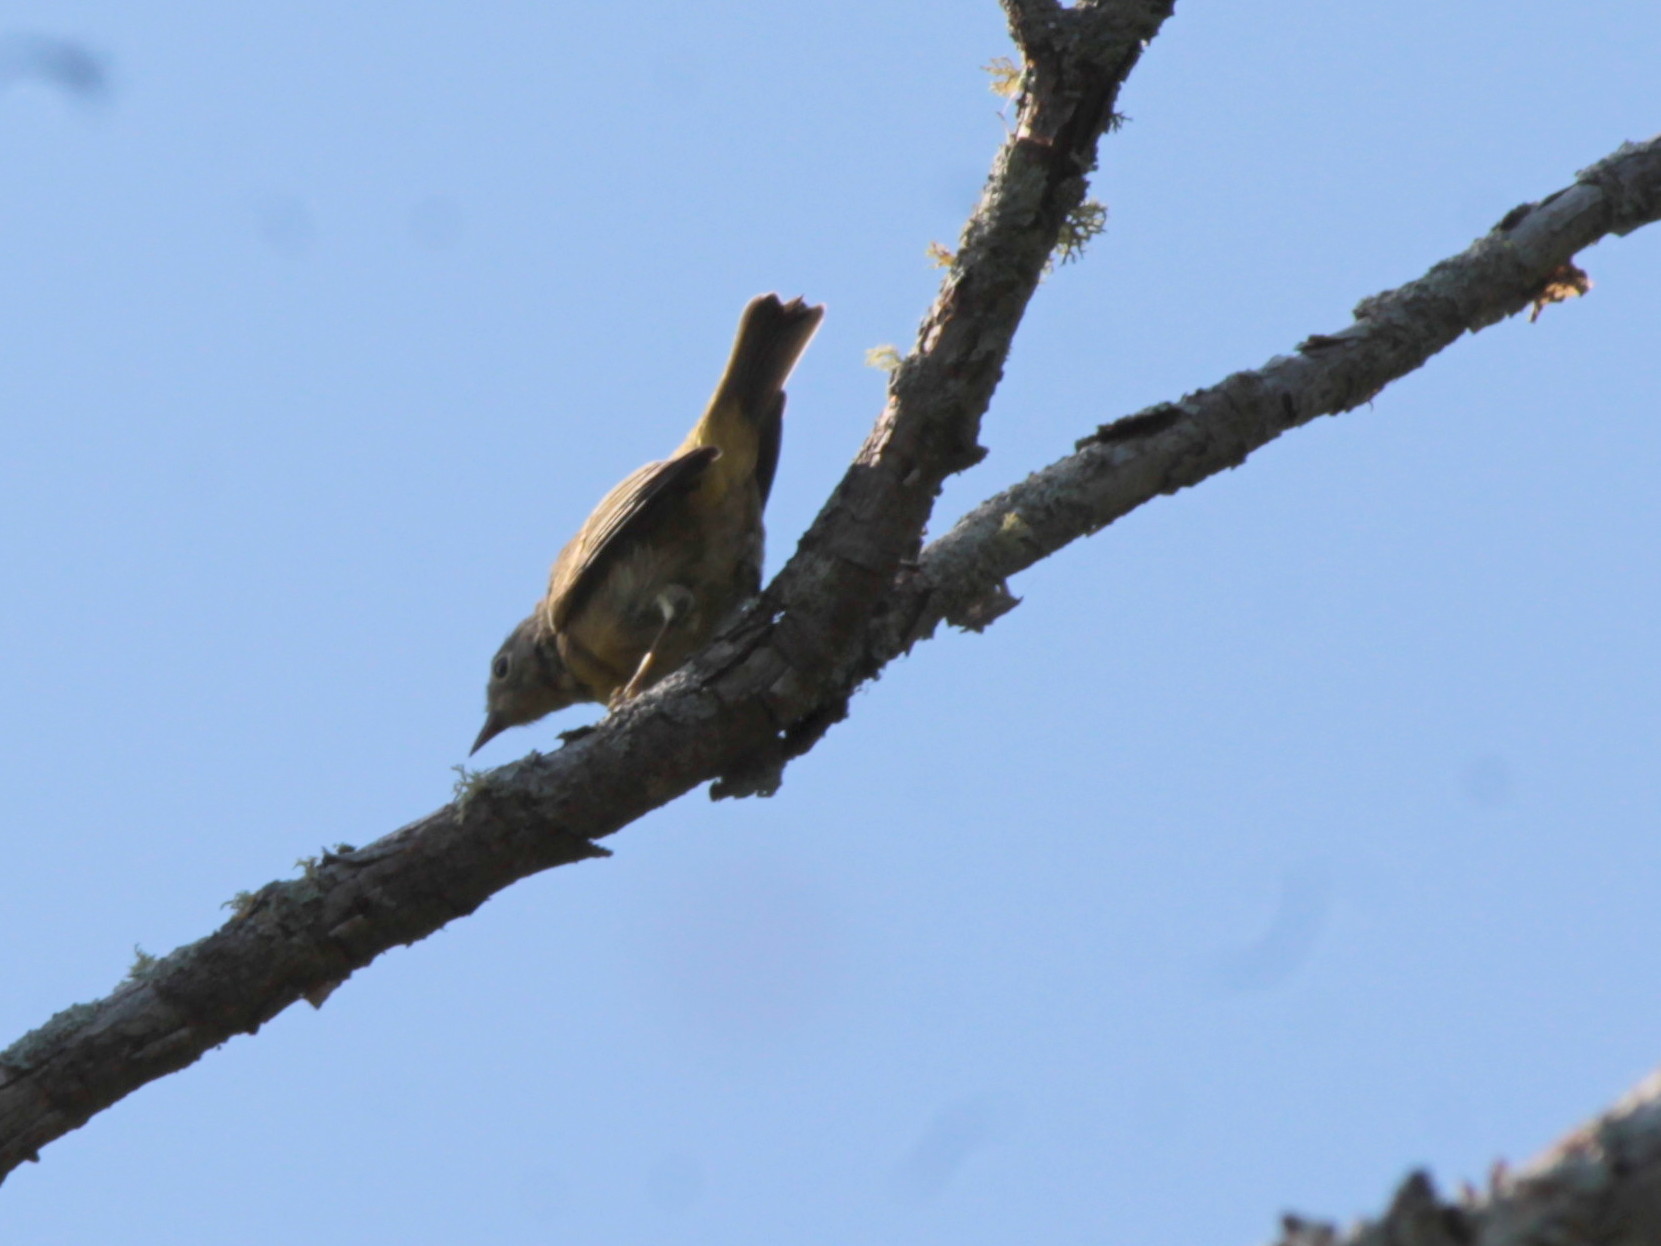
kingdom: Animalia
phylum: Chordata
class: Aves
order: Passeriformes
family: Parulidae
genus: Leiothlypis
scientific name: Leiothlypis ruficapilla
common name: Nashville warbler
